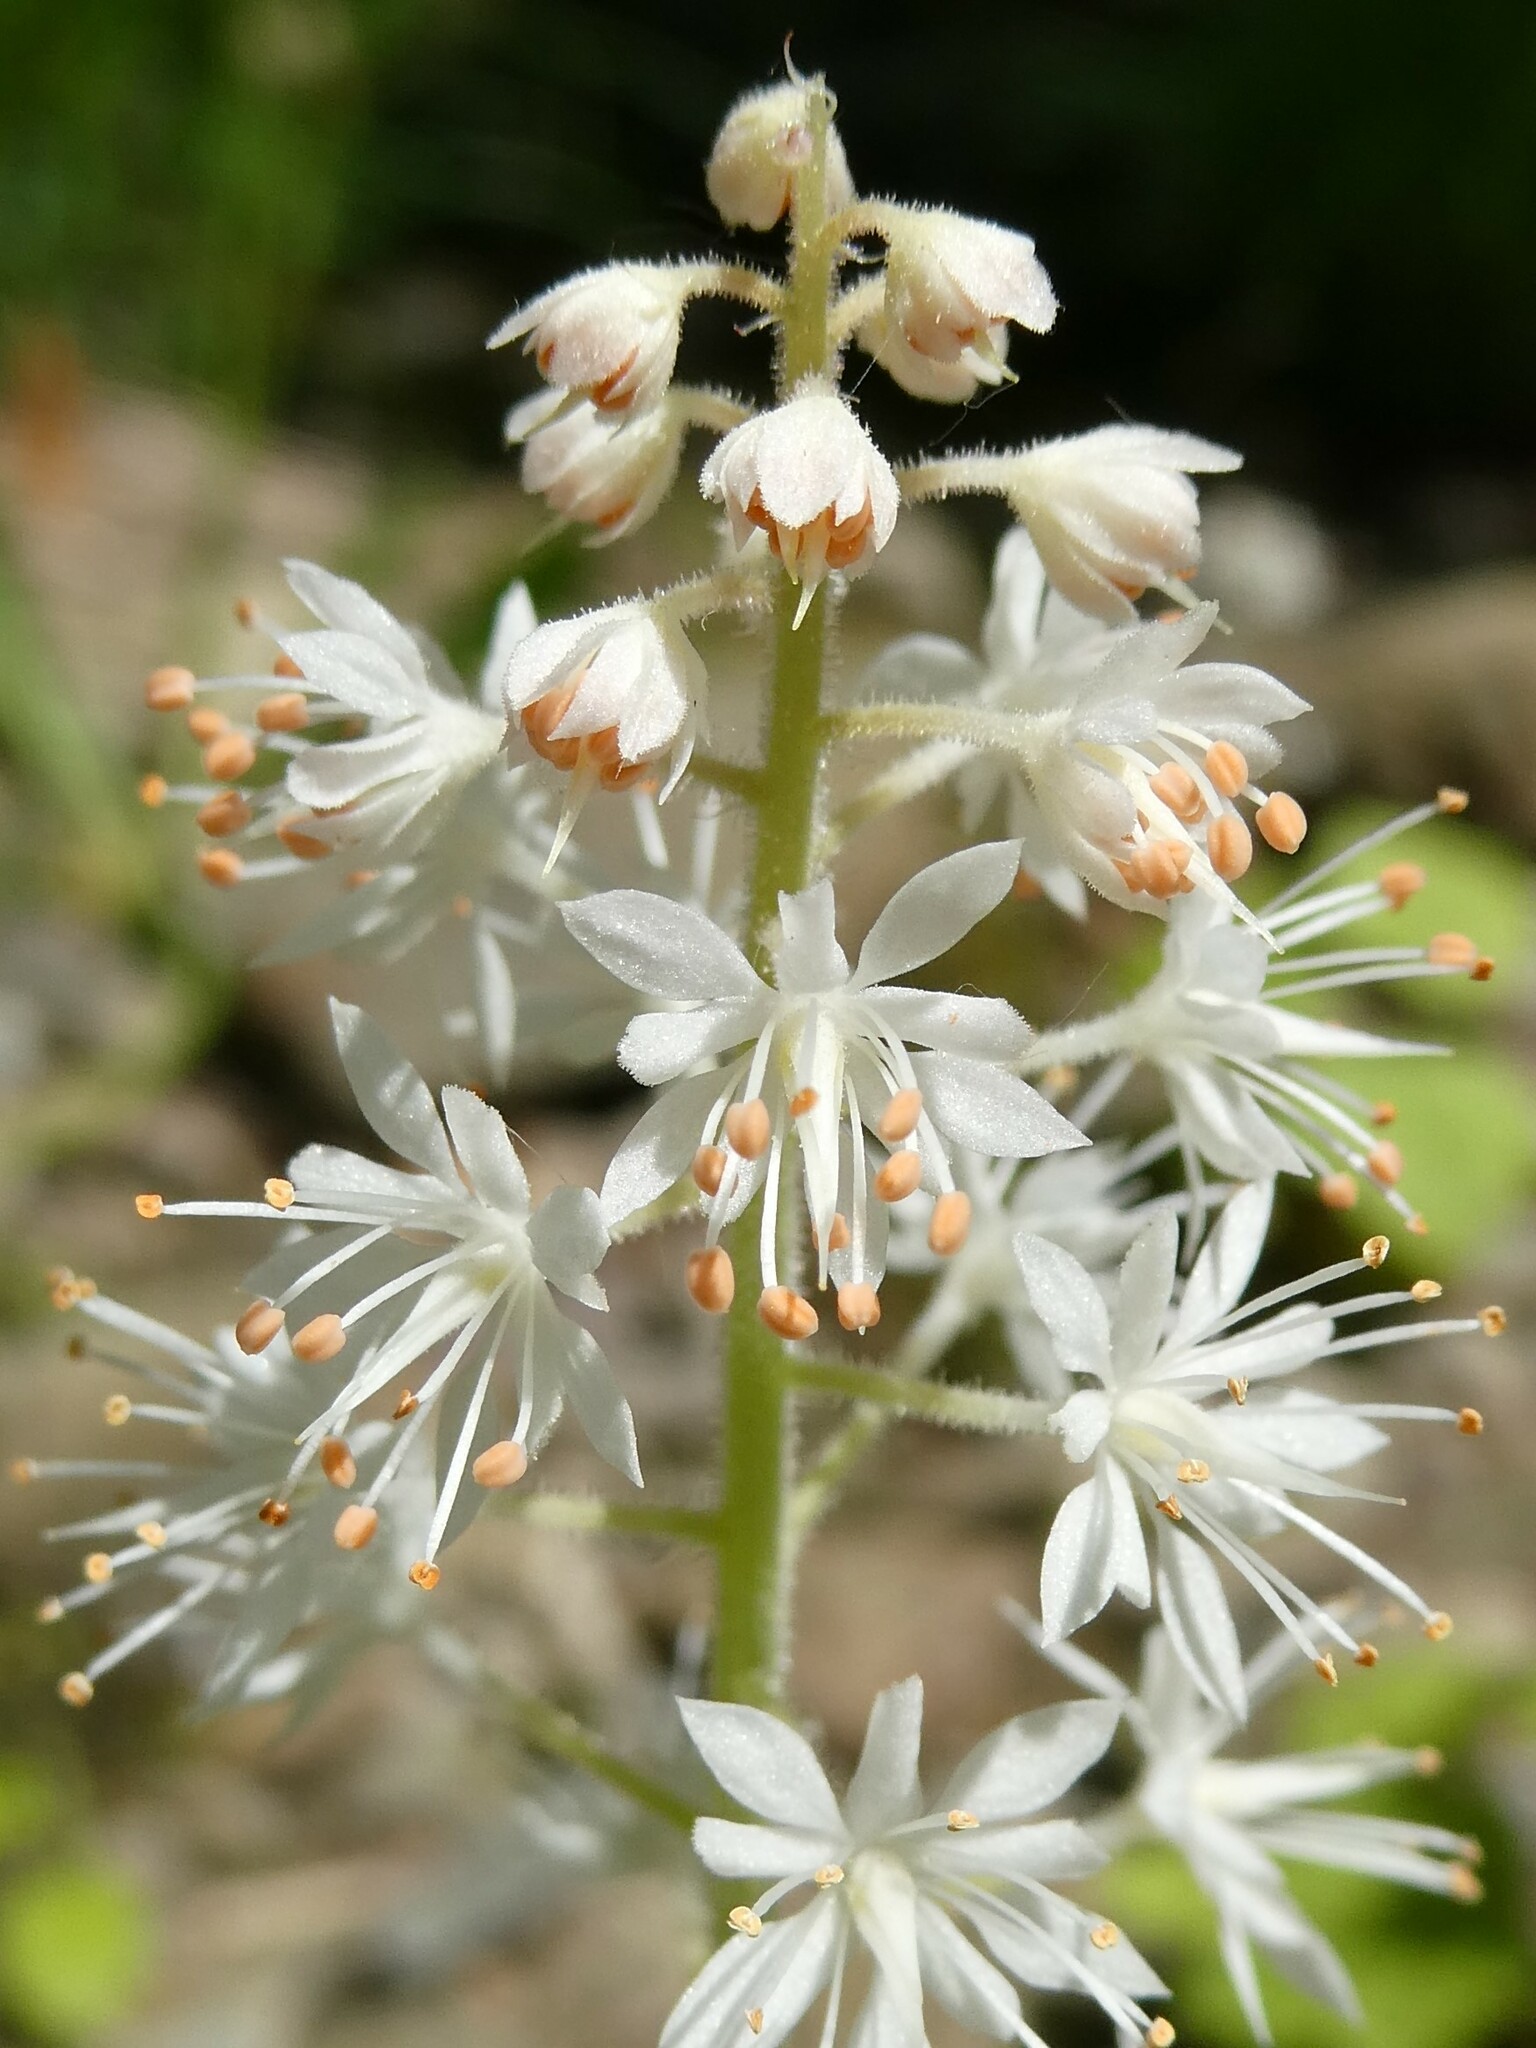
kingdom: Plantae
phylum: Tracheophyta
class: Magnoliopsida
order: Saxifragales
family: Saxifragaceae
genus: Tiarella
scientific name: Tiarella stolonifera
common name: Stoloniferous foamflower
